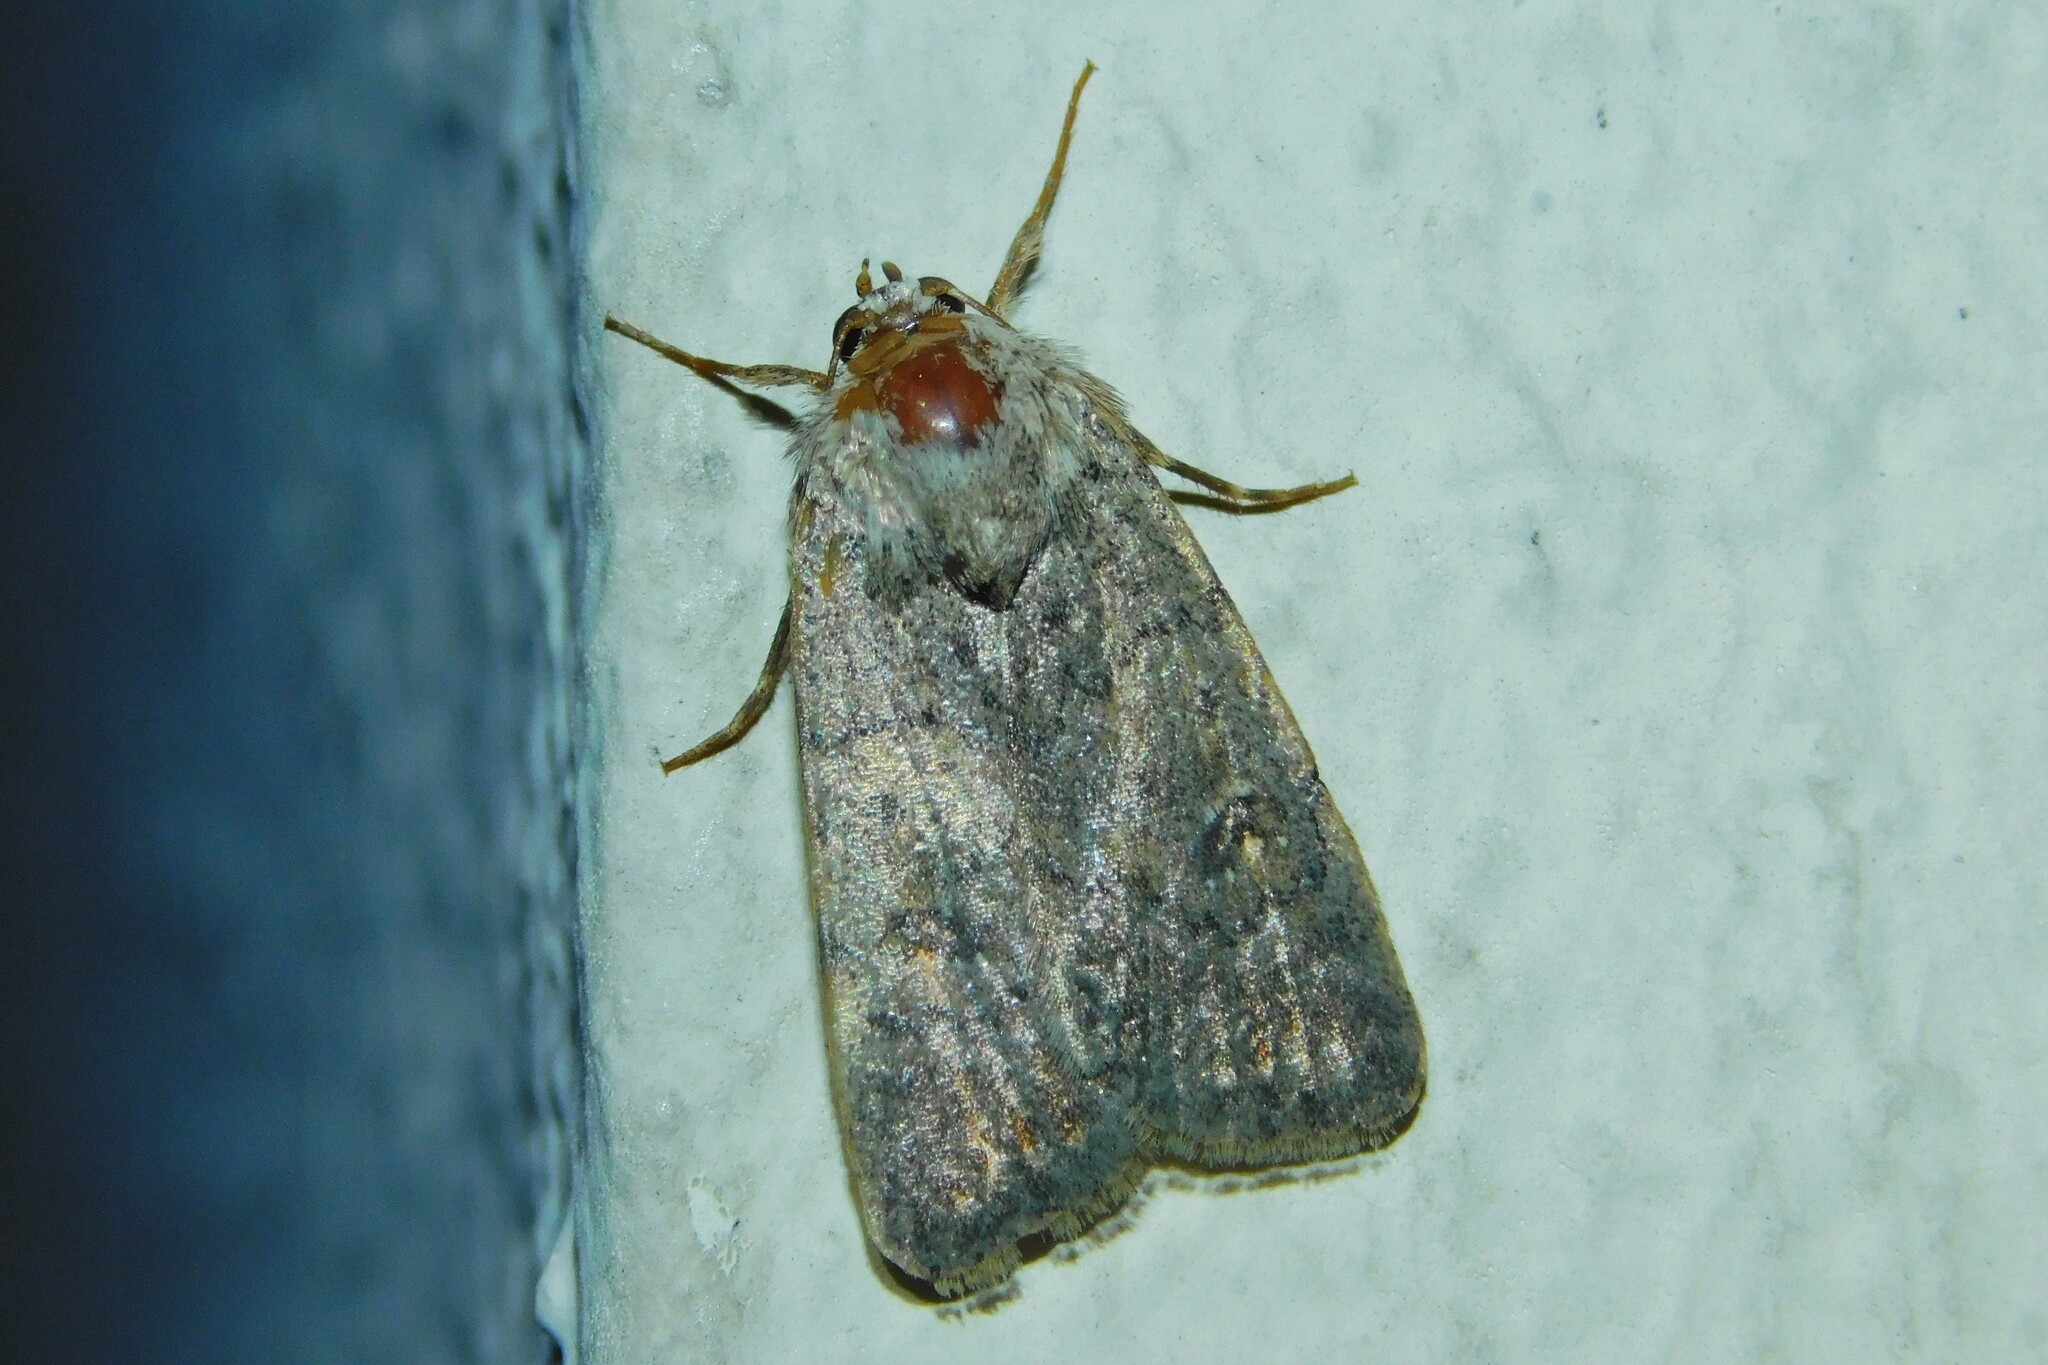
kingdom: Animalia
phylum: Arthropoda
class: Insecta
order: Lepidoptera
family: Noctuidae
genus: Caradrina
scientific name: Caradrina clavipalpis
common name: Pale mottled willow
